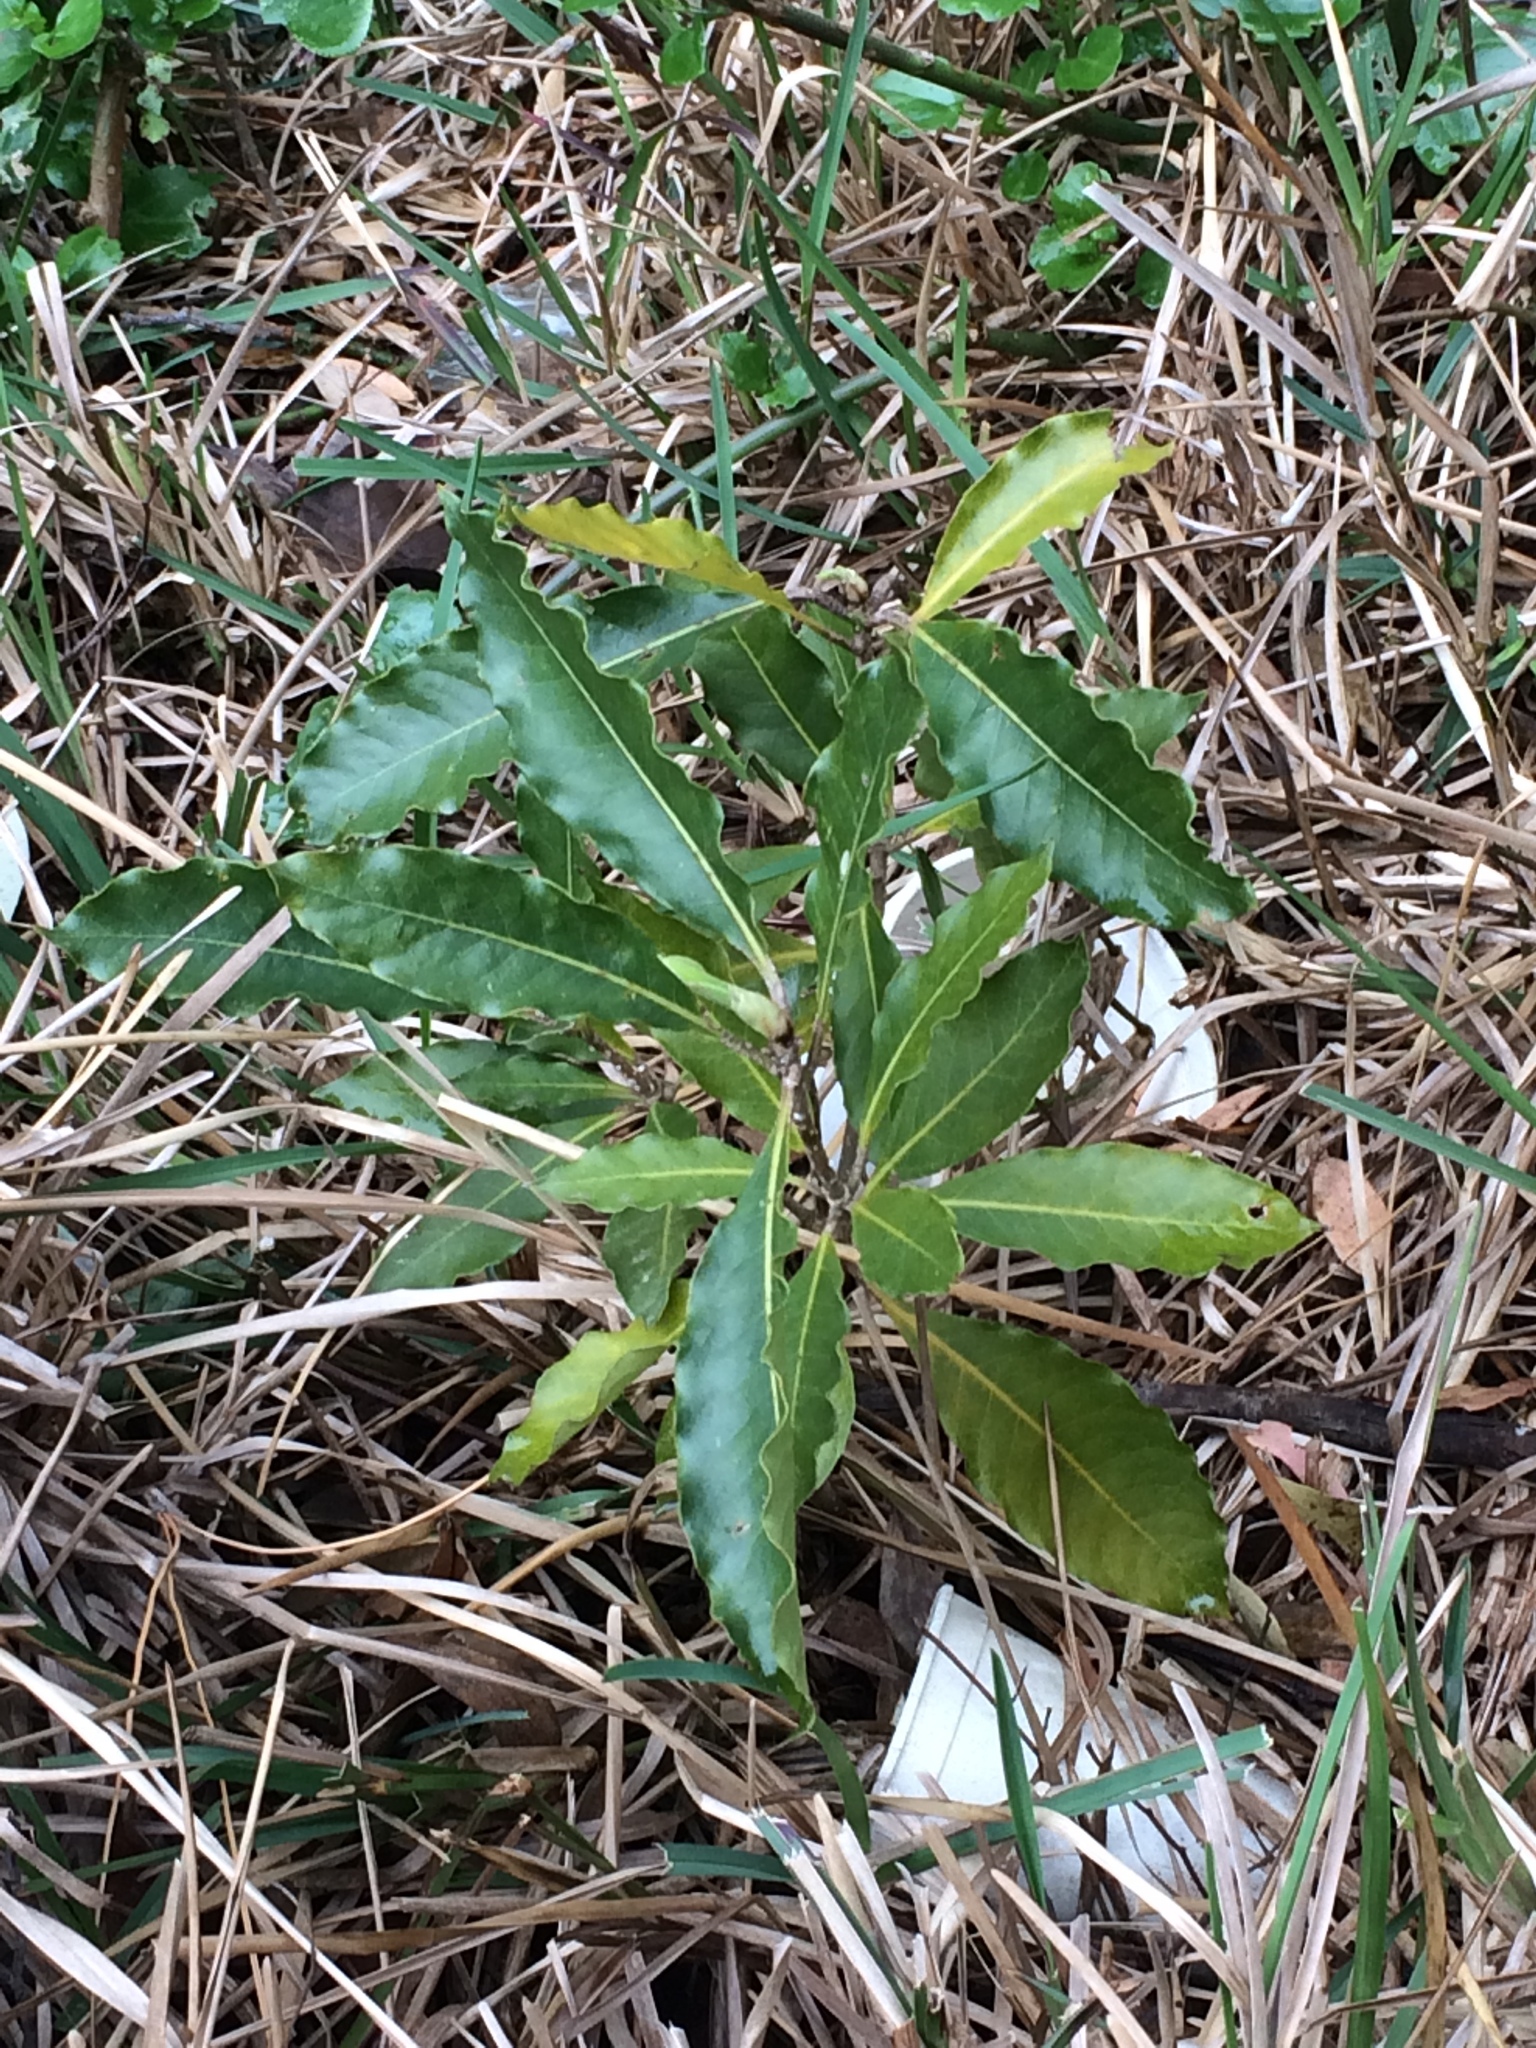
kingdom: Plantae
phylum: Tracheophyta
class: Magnoliopsida
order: Apiales
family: Pittosporaceae
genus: Pittosporum
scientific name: Pittosporum undulatum
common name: Australian cheesewood
